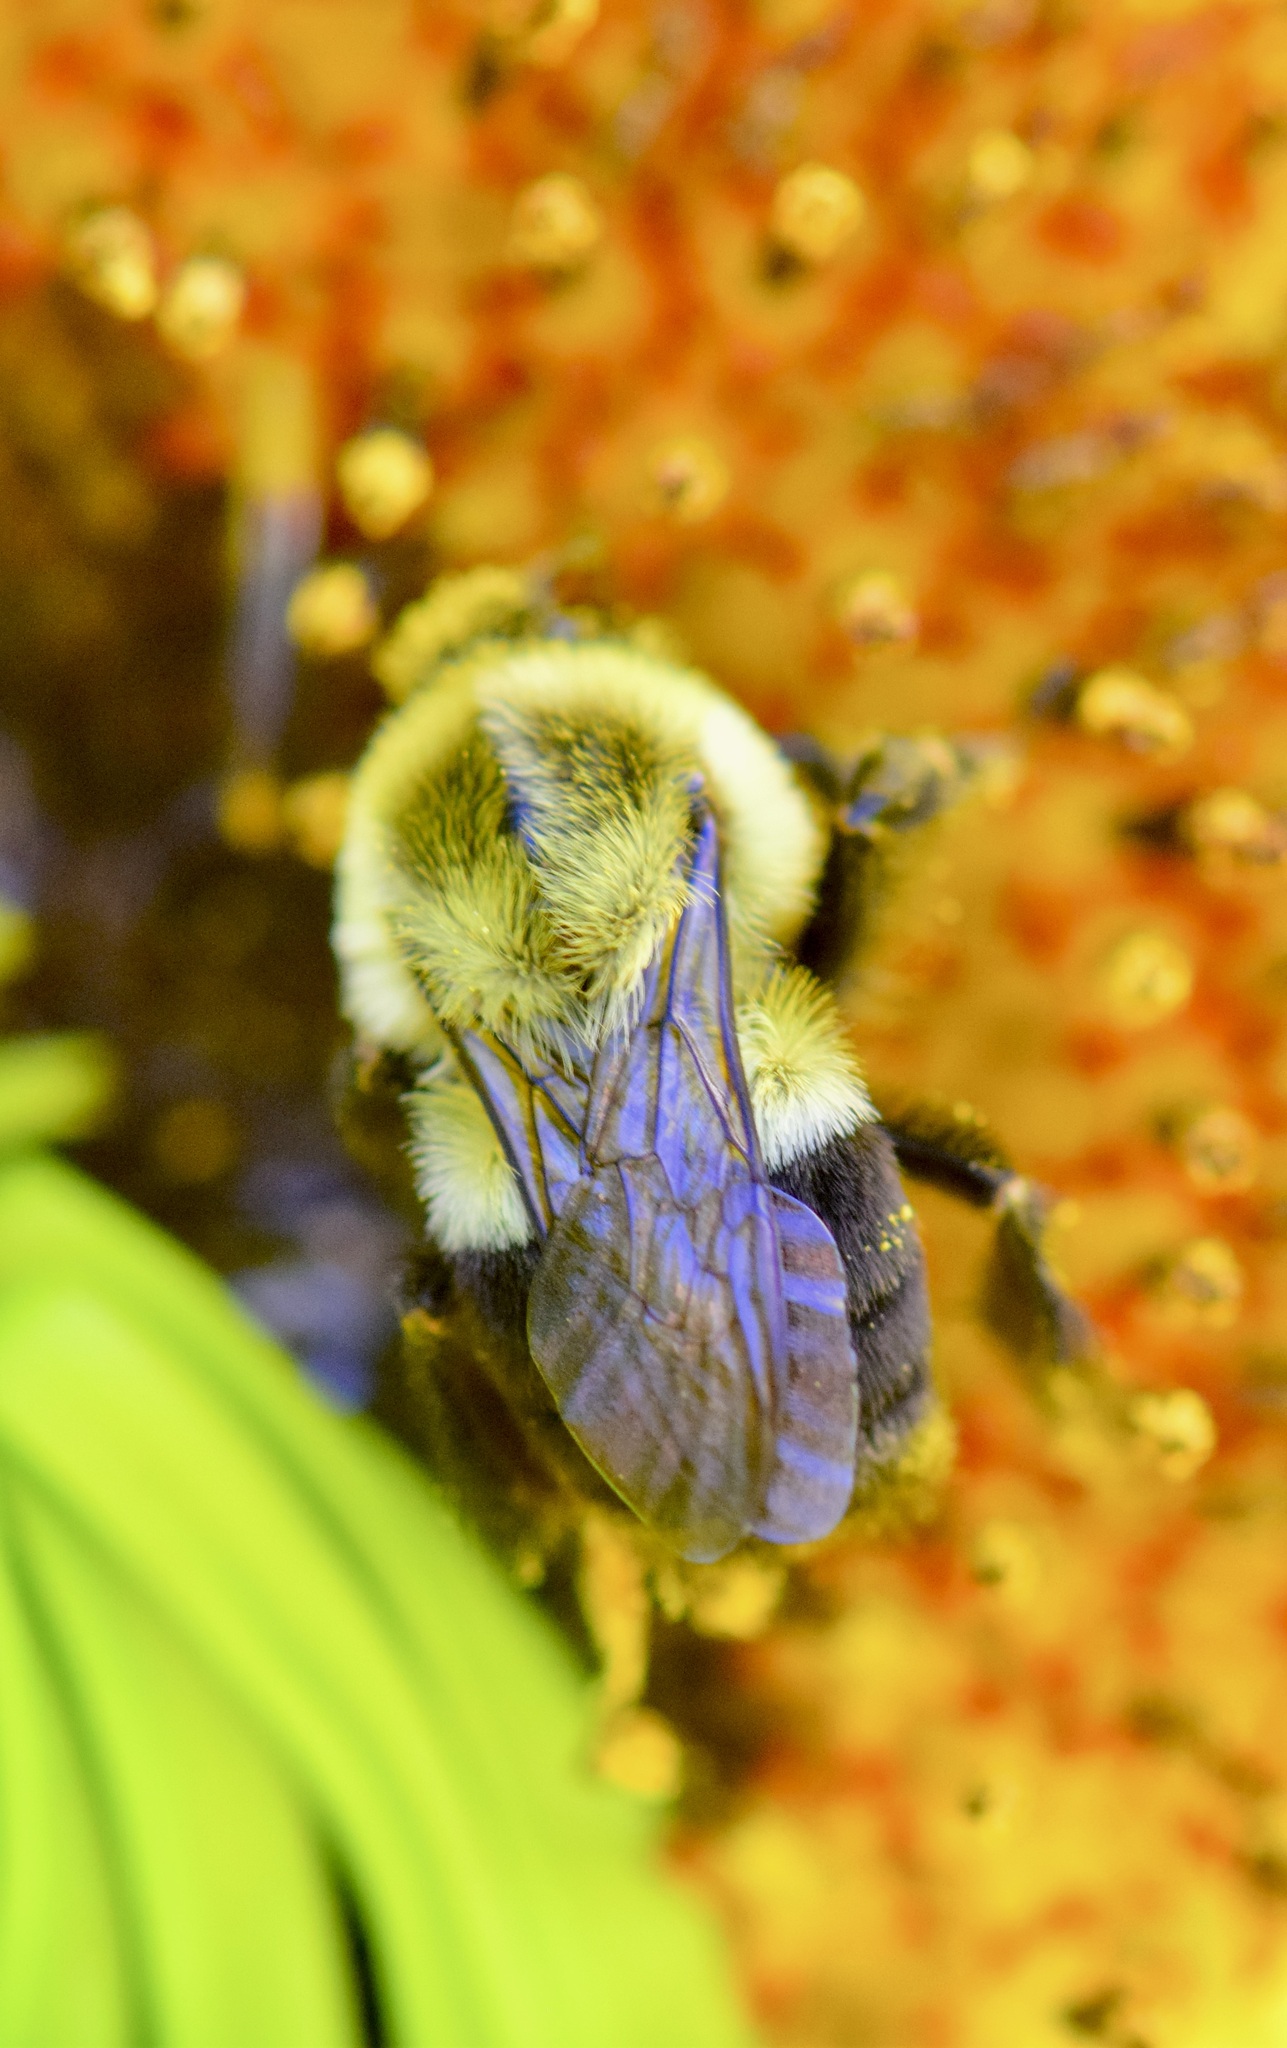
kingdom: Animalia
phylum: Arthropoda
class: Insecta
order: Hymenoptera
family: Apidae
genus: Bombus
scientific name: Bombus impatiens
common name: Common eastern bumble bee
